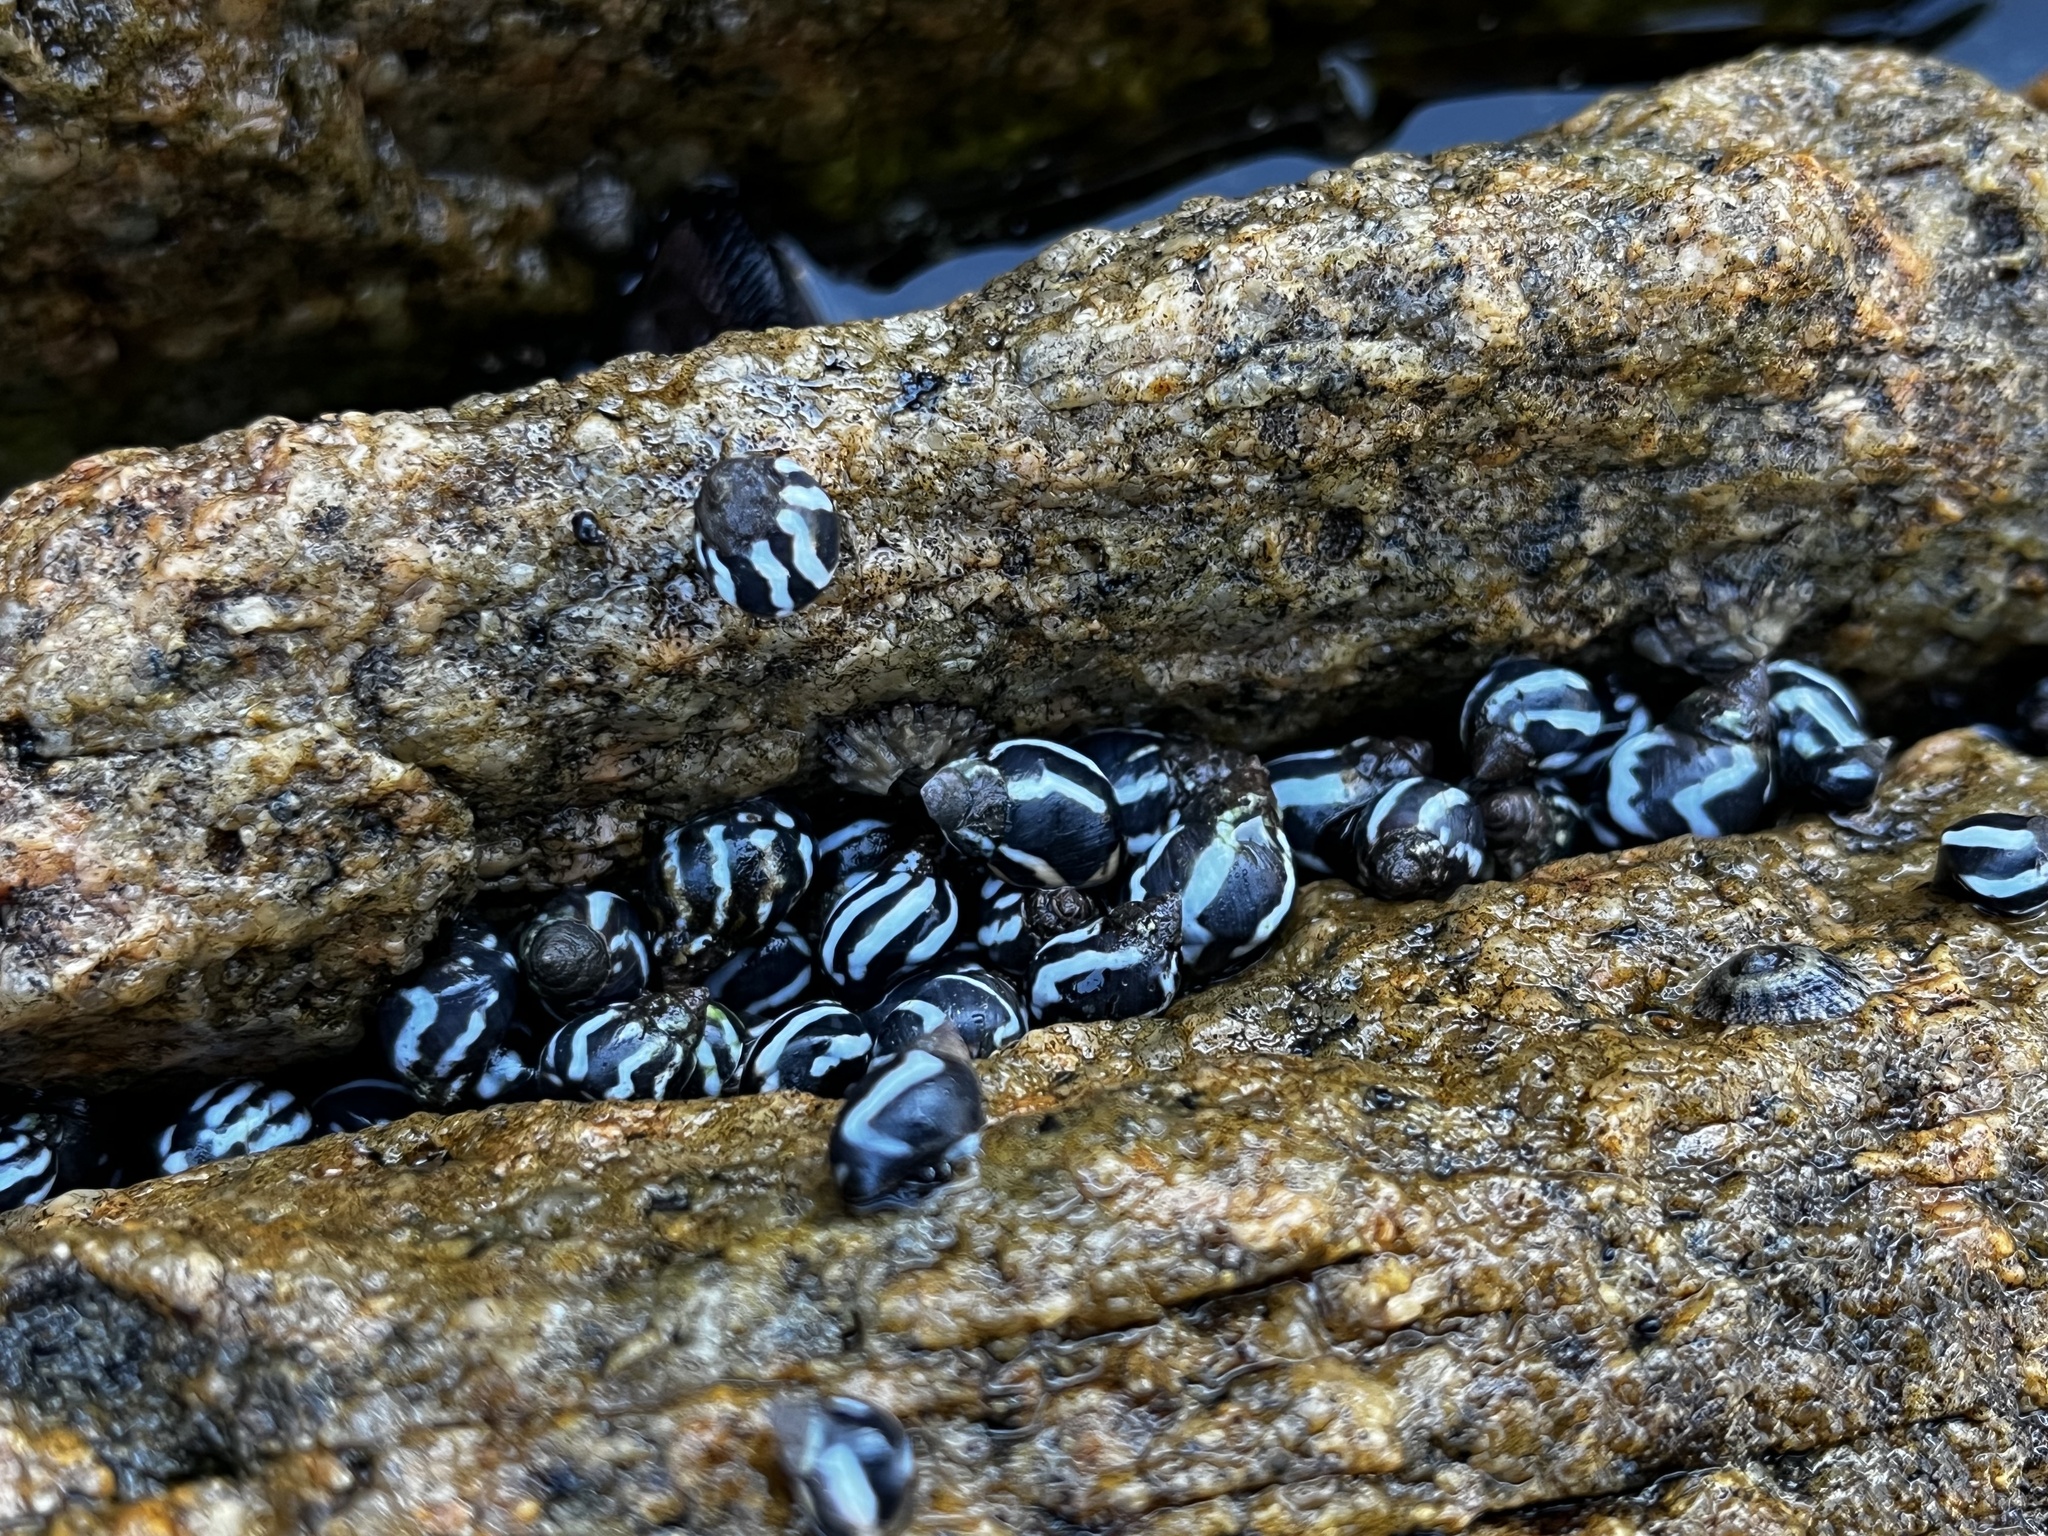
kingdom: Animalia
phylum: Mollusca
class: Gastropoda
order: Littorinimorpha
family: Littorinidae
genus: Echinolittorina
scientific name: Echinolittorina peruviana
